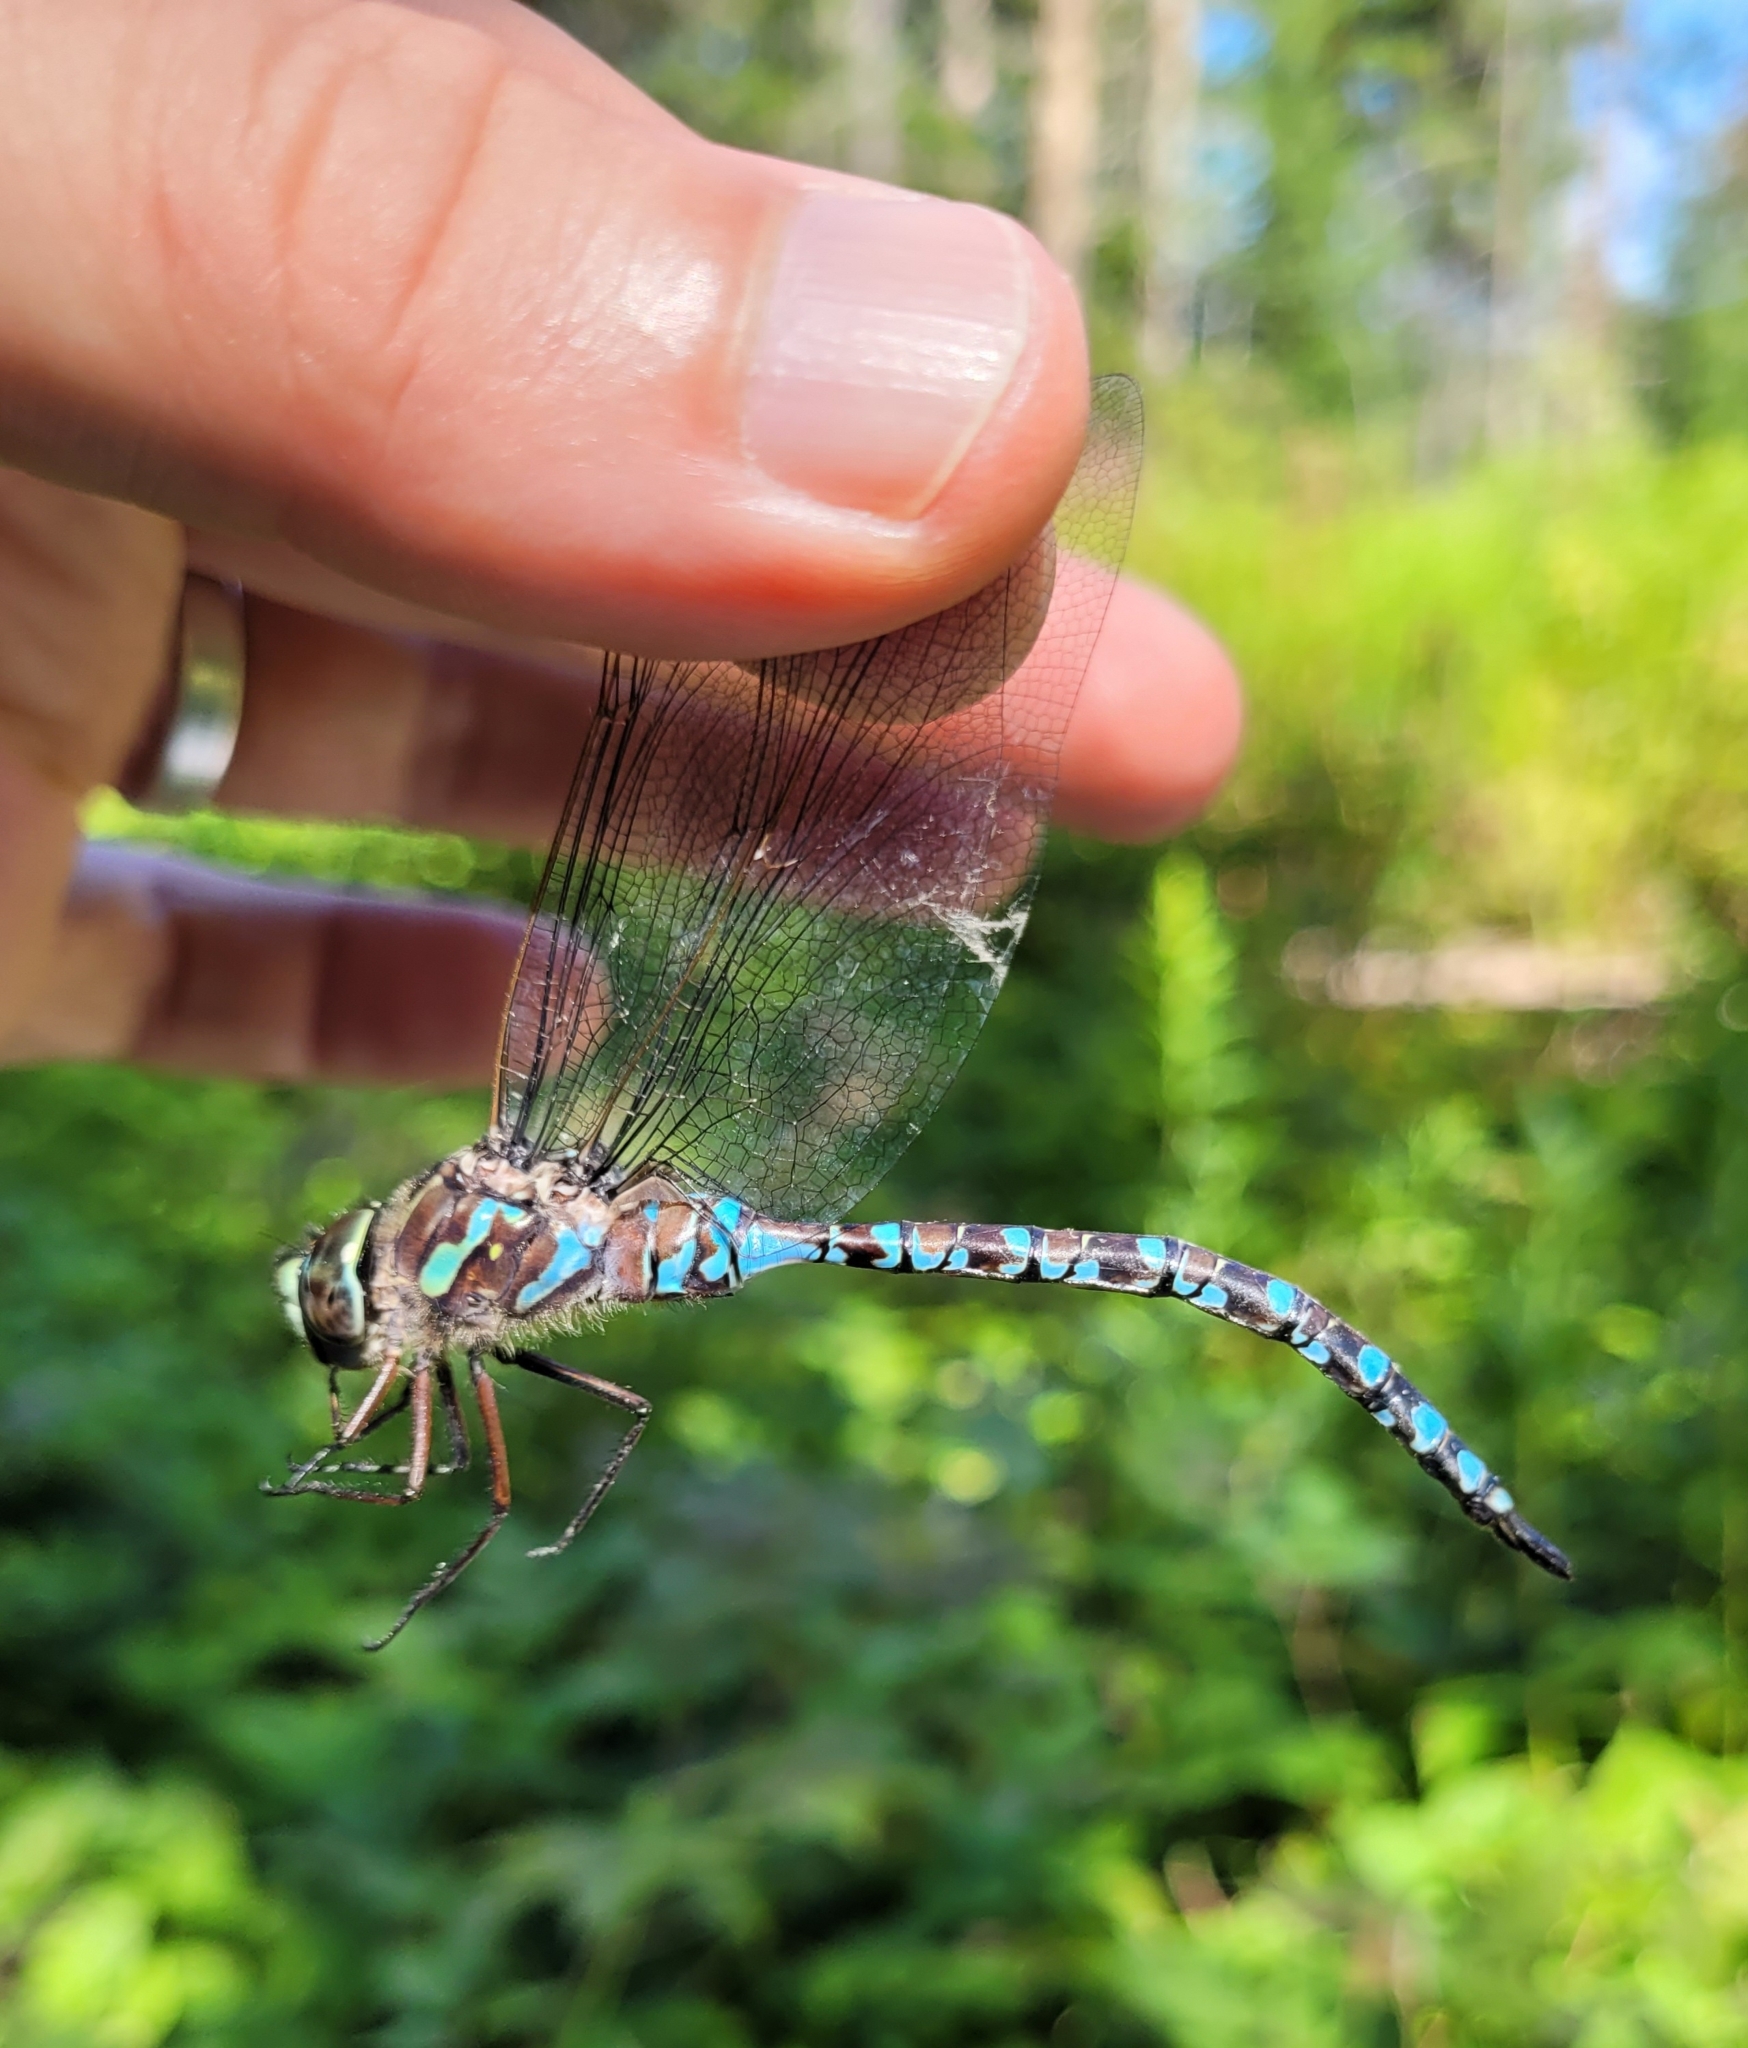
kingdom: Animalia
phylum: Arthropoda
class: Insecta
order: Odonata
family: Aeshnidae
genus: Aeshna
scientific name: Aeshna canadensis
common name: Canada darner
